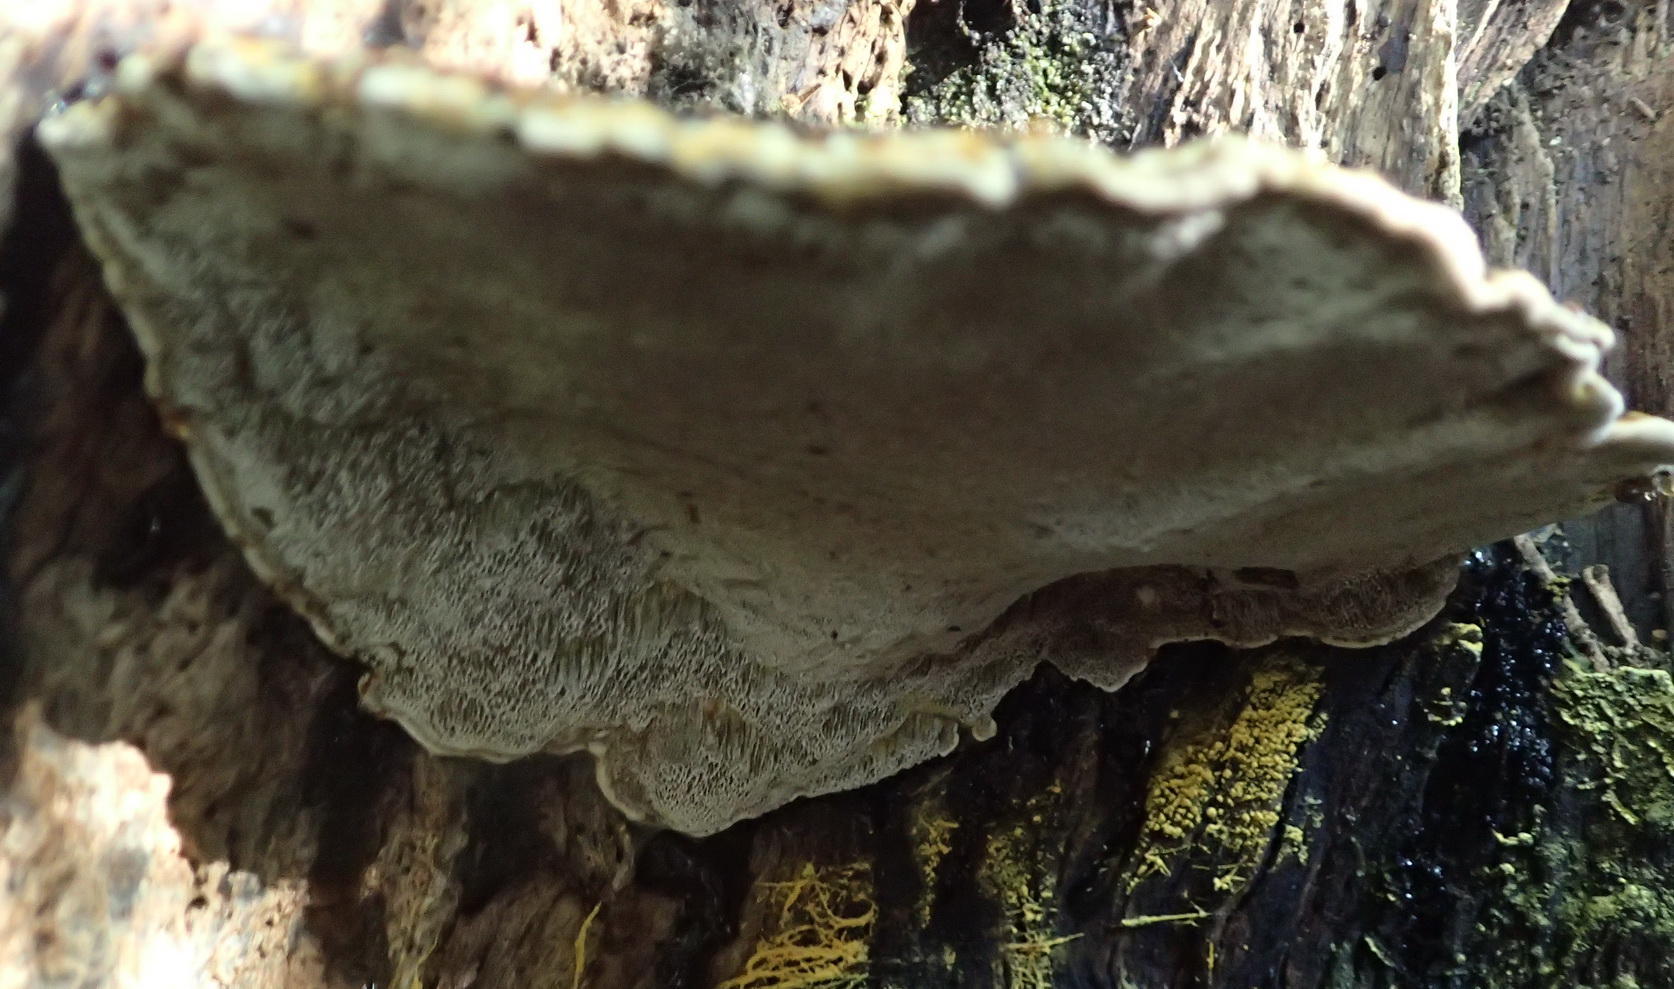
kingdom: Fungi
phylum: Basidiomycota
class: Agaricomycetes
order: Polyporales
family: Polyporaceae
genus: Trametes
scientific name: Trametes cingulata
